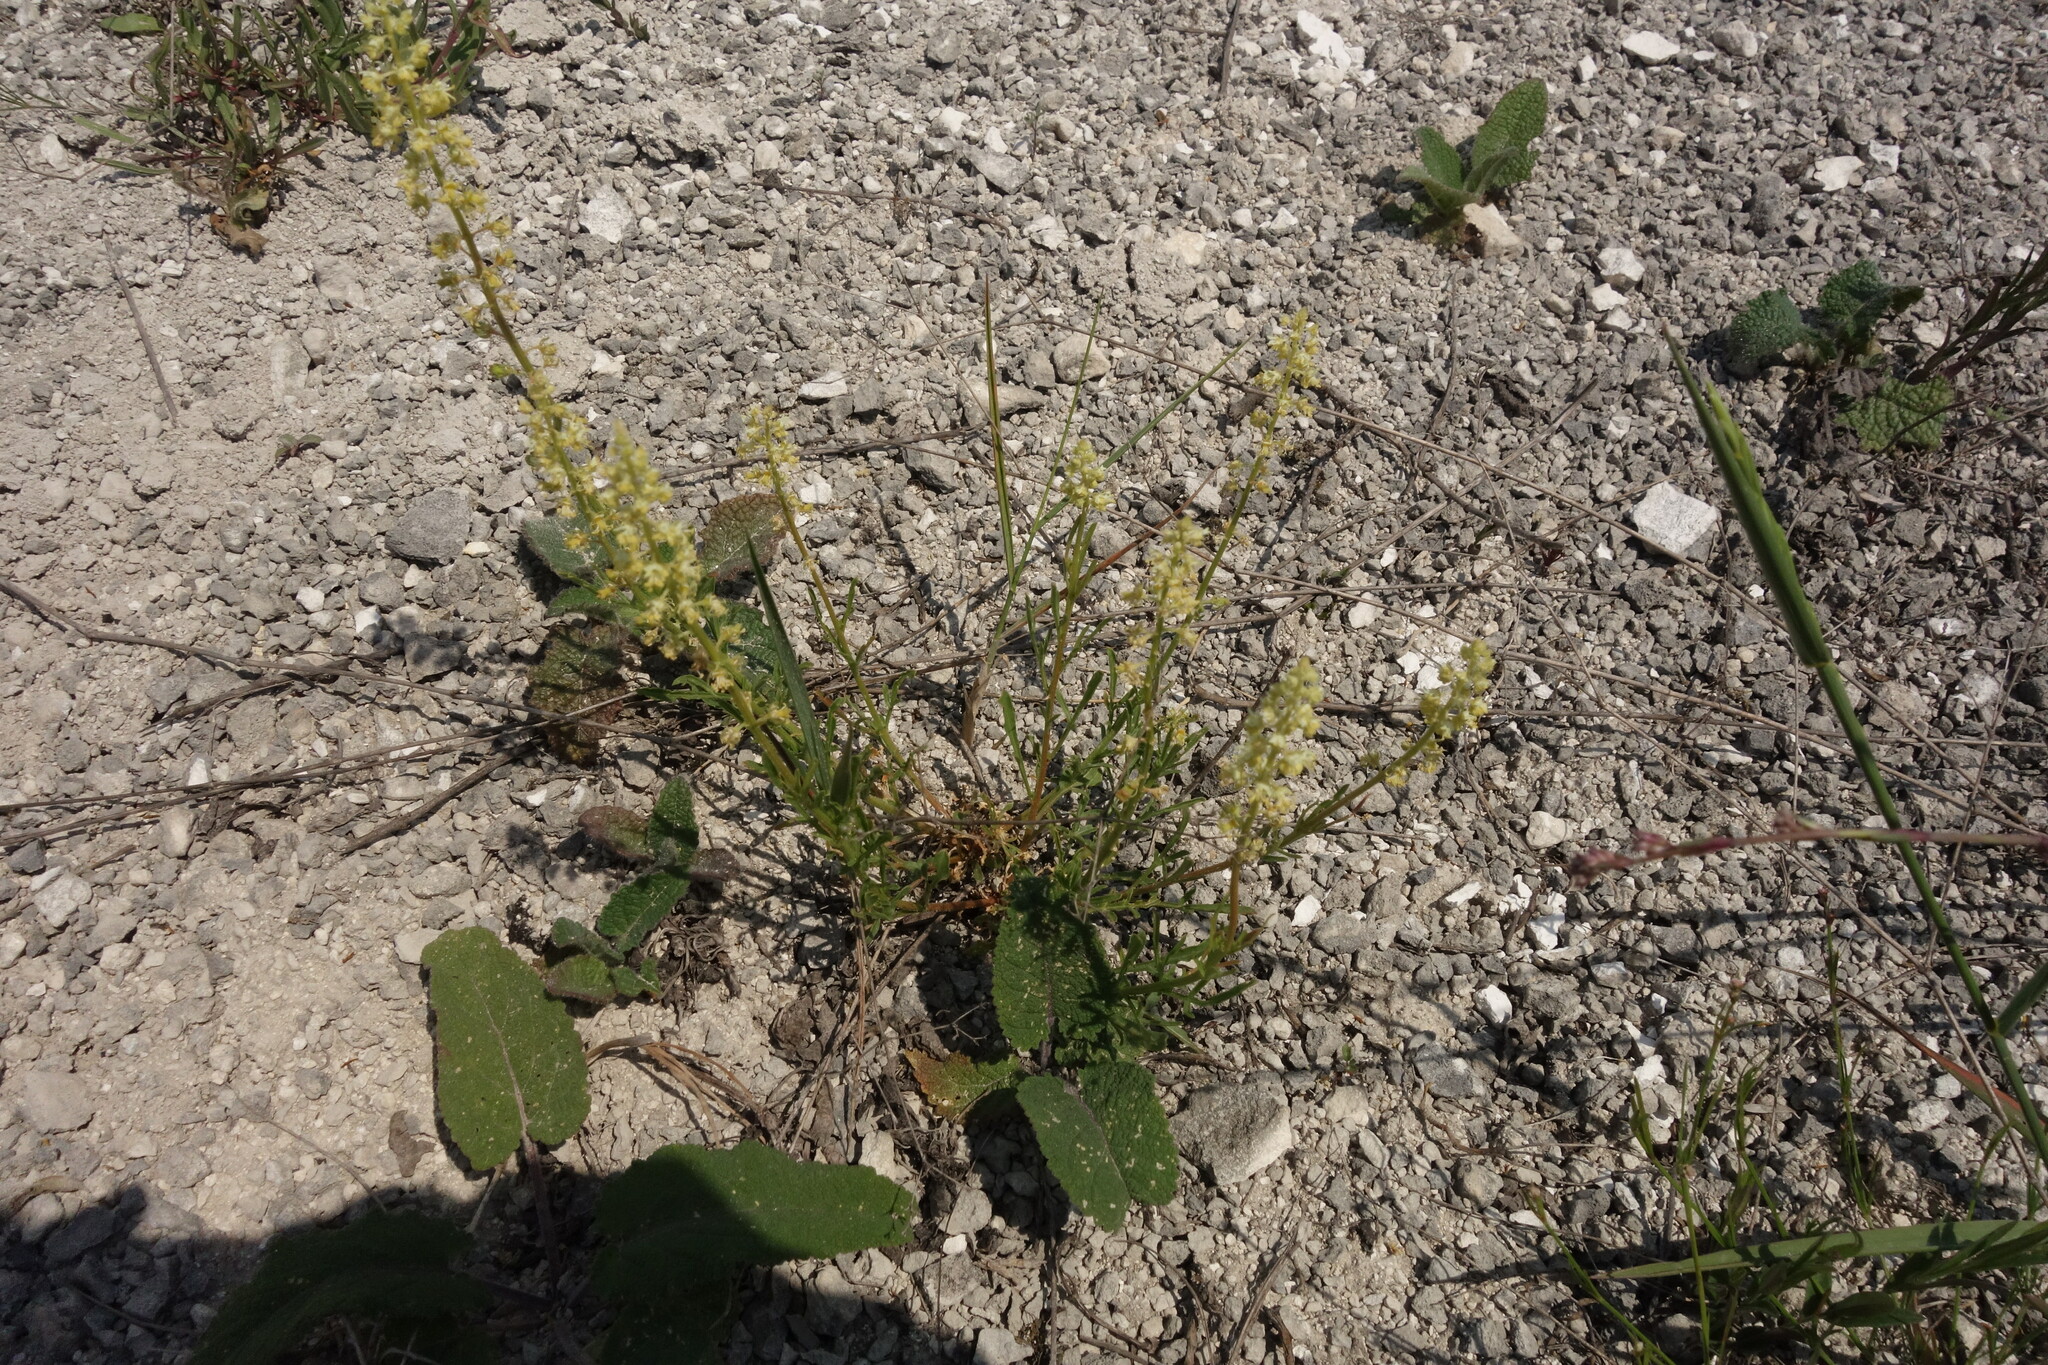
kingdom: Plantae
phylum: Tracheophyta
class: Magnoliopsida
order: Brassicales
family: Resedaceae
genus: Reseda
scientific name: Reseda lutea
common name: Wild mignonette
